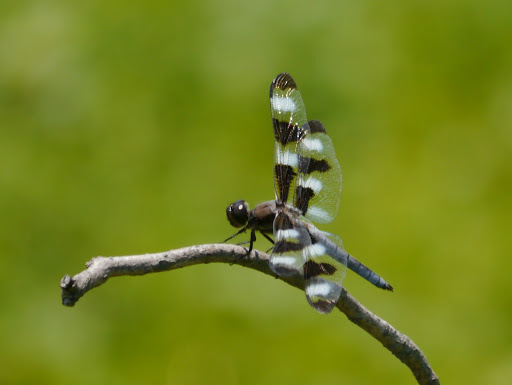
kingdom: Animalia
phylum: Arthropoda
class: Insecta
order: Odonata
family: Libellulidae
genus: Libellula
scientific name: Libellula pulchella
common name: Twelve-spotted skimmer
